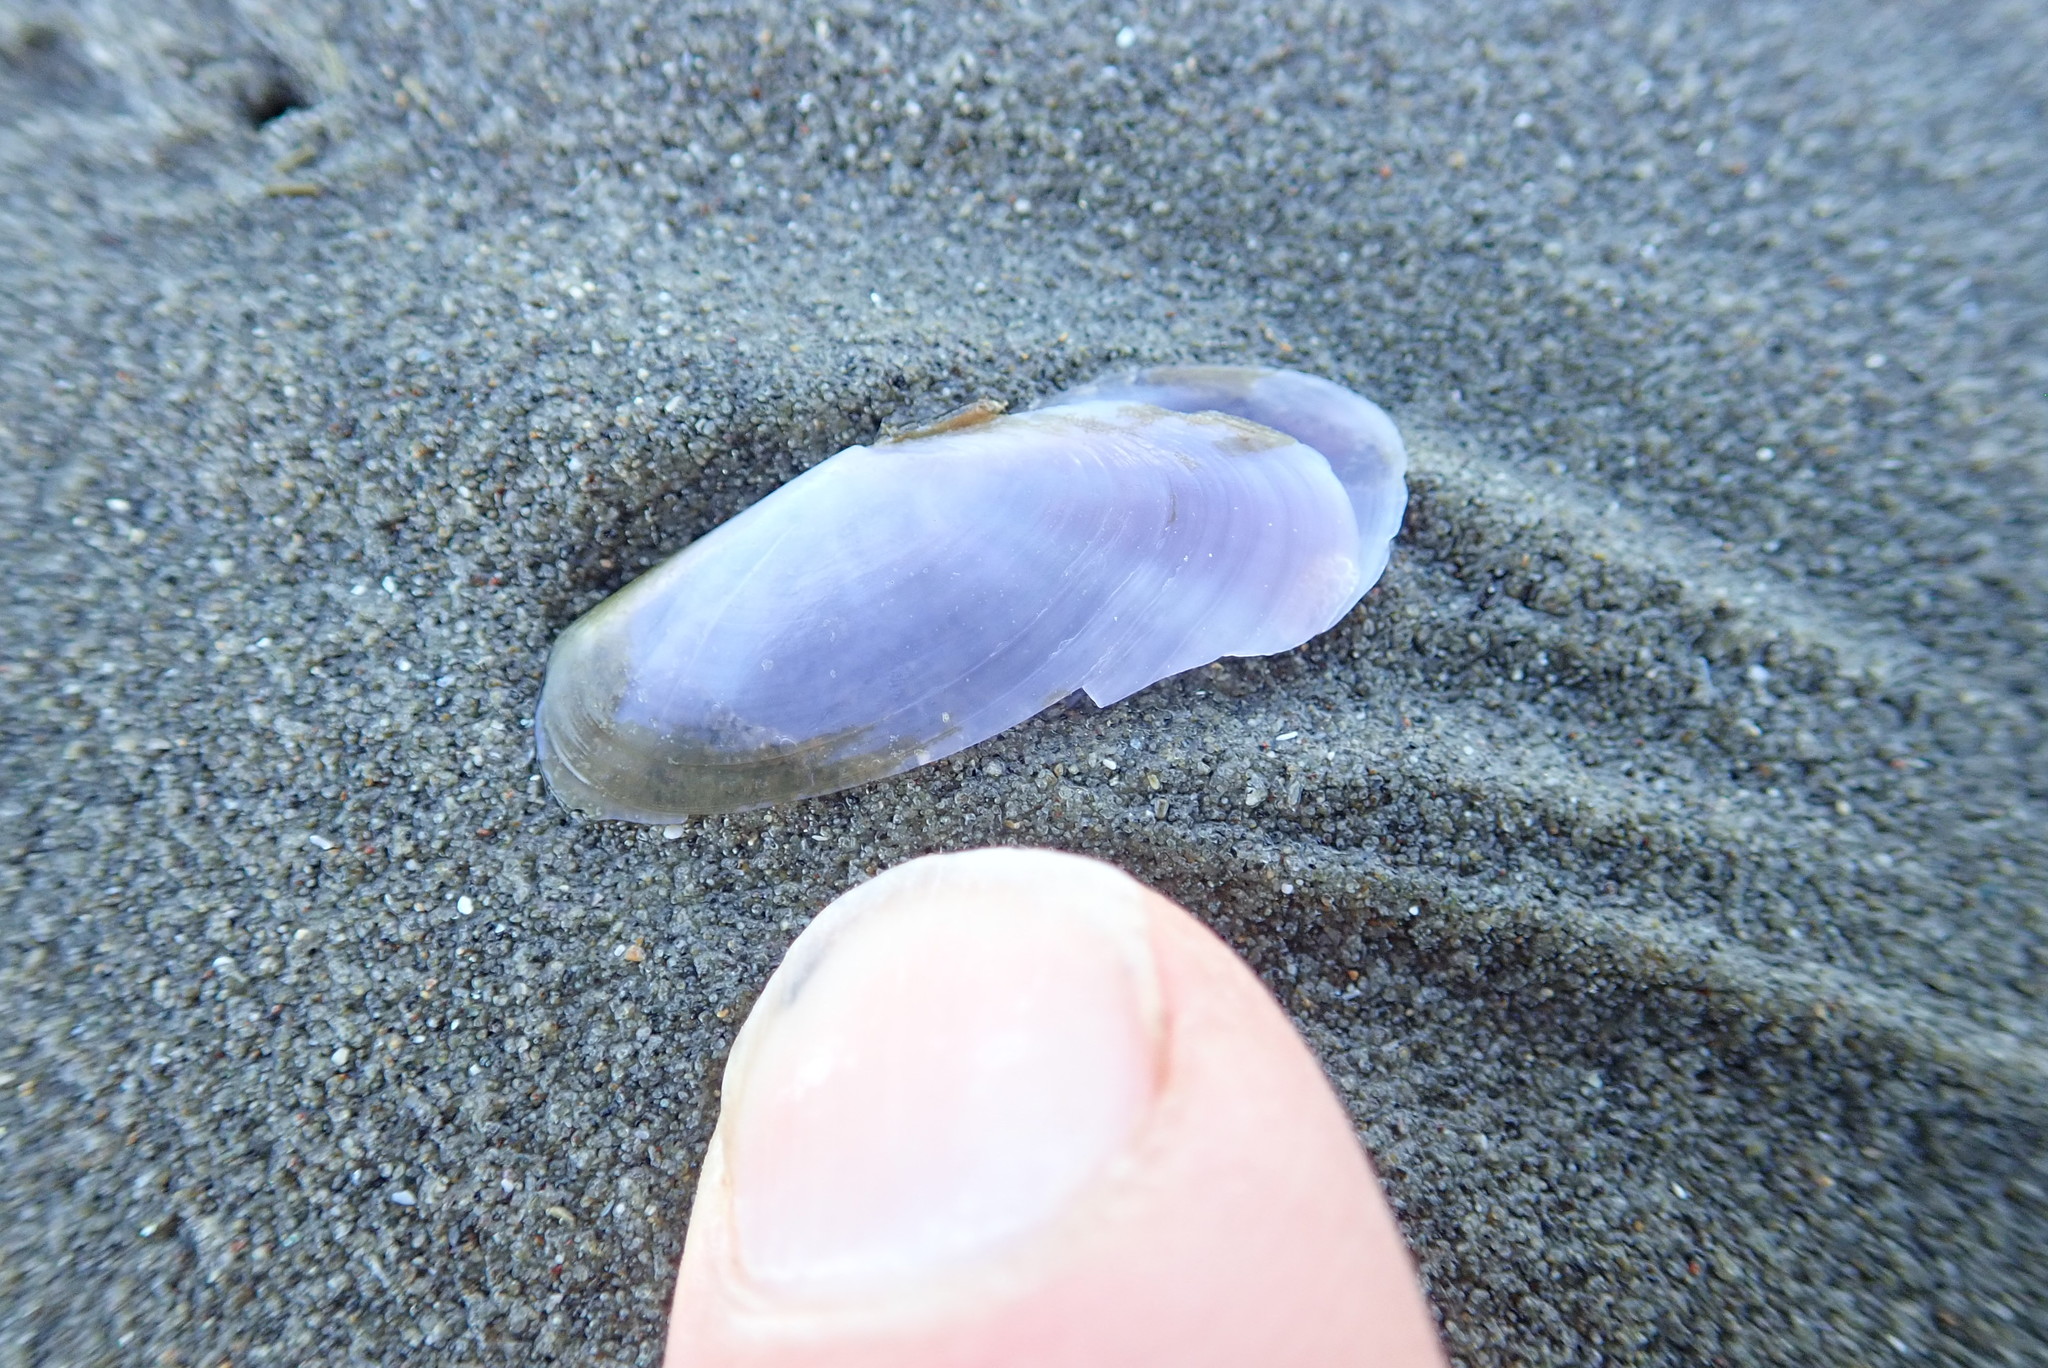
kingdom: Animalia
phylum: Mollusca
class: Bivalvia
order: Cardiida
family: Psammobiidae
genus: Hiatula
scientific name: Hiatula nitida
